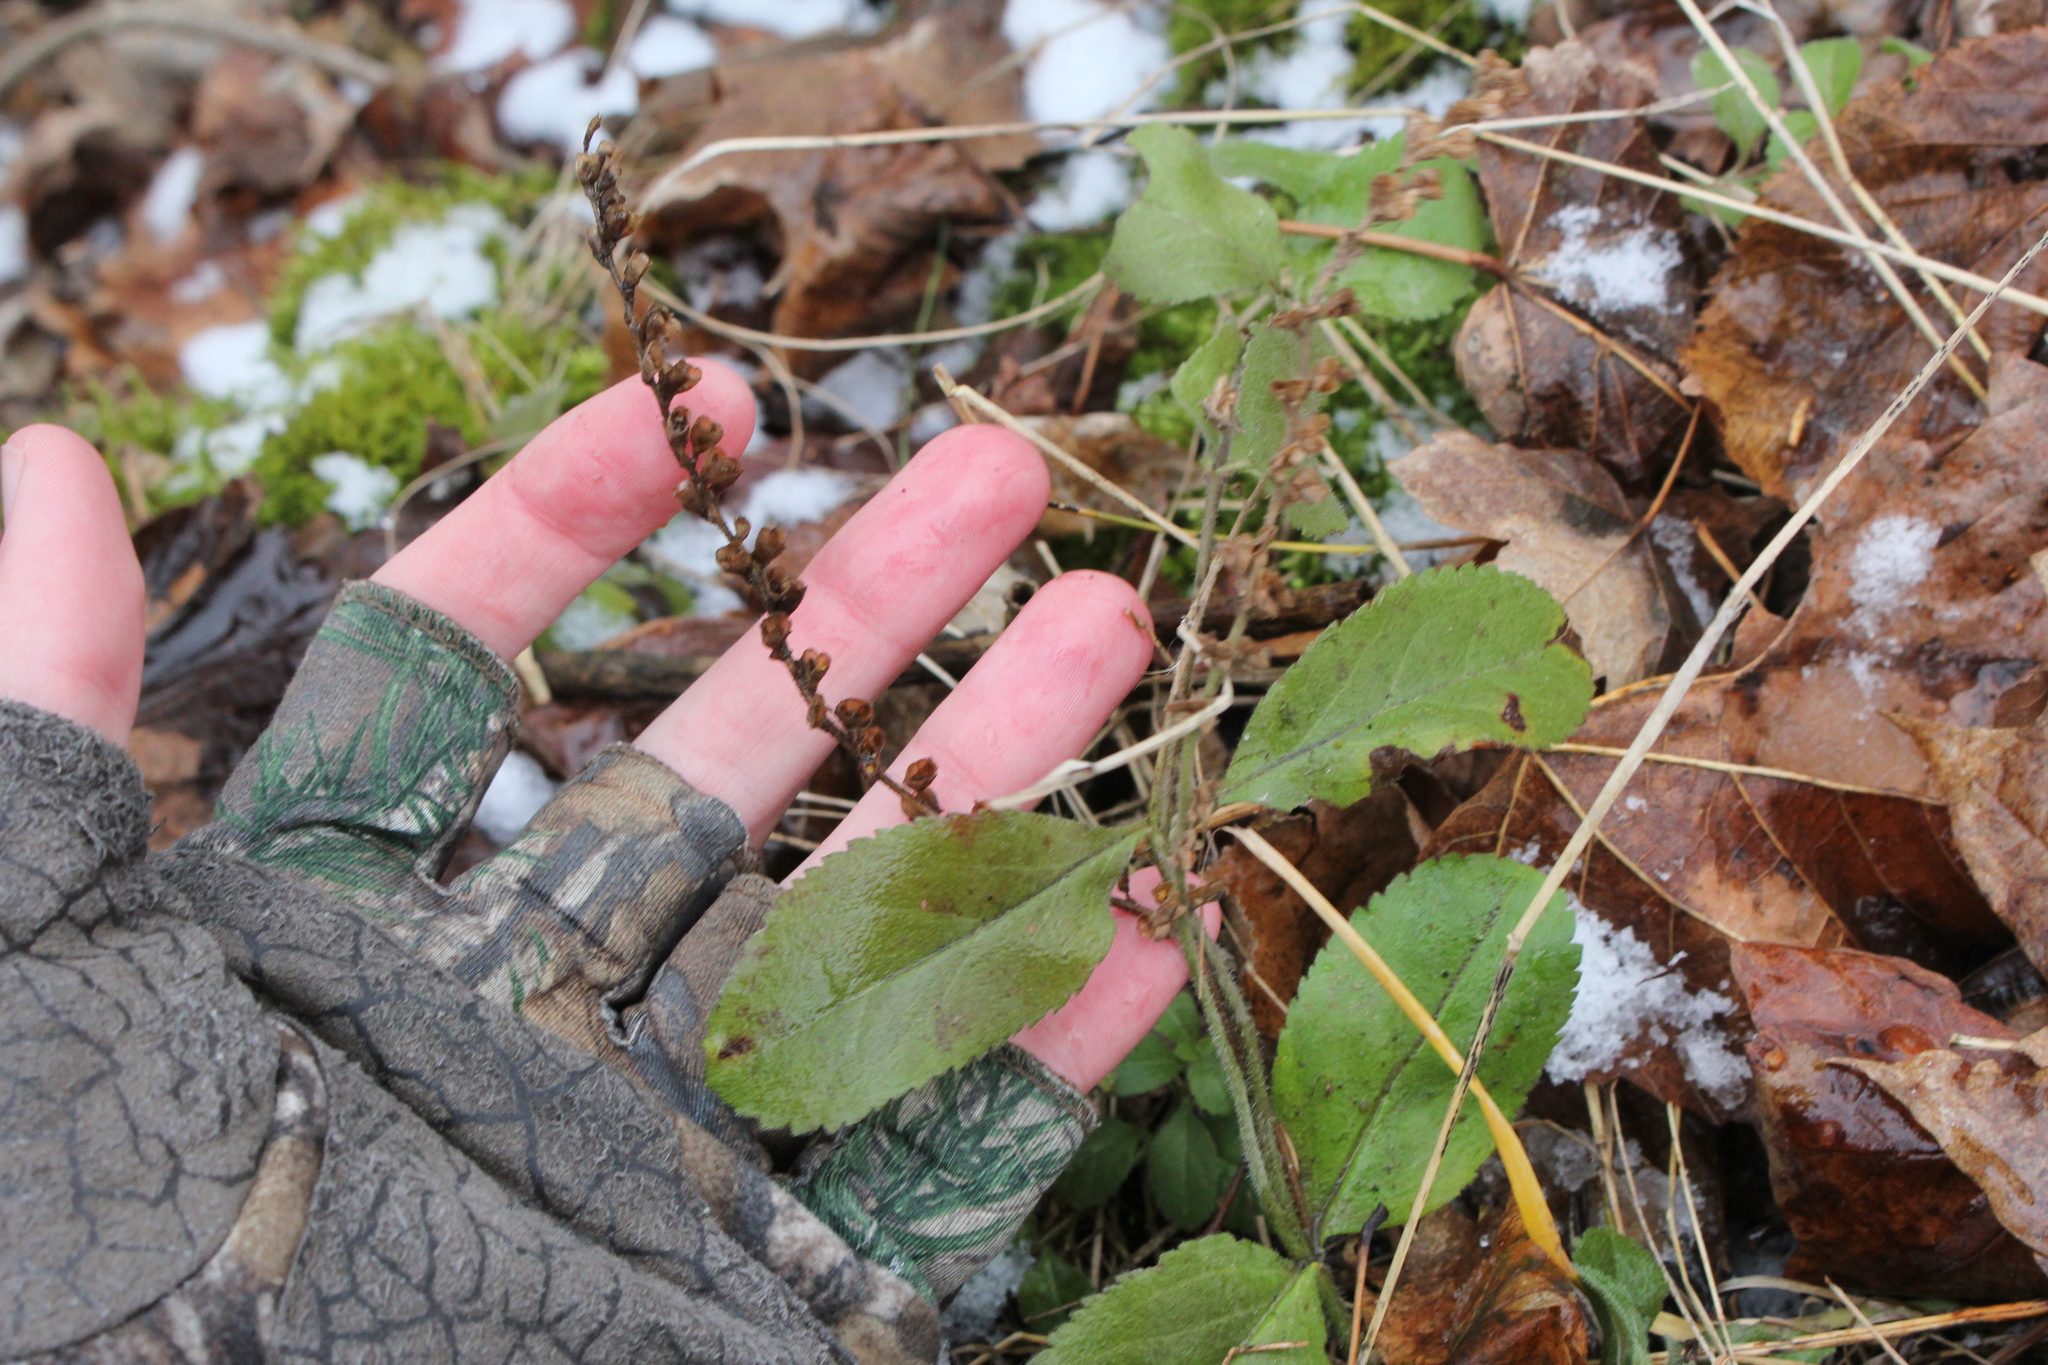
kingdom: Plantae
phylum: Tracheophyta
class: Magnoliopsida
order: Lamiales
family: Plantaginaceae
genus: Veronica
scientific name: Veronica officinalis
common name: Common speedwell
